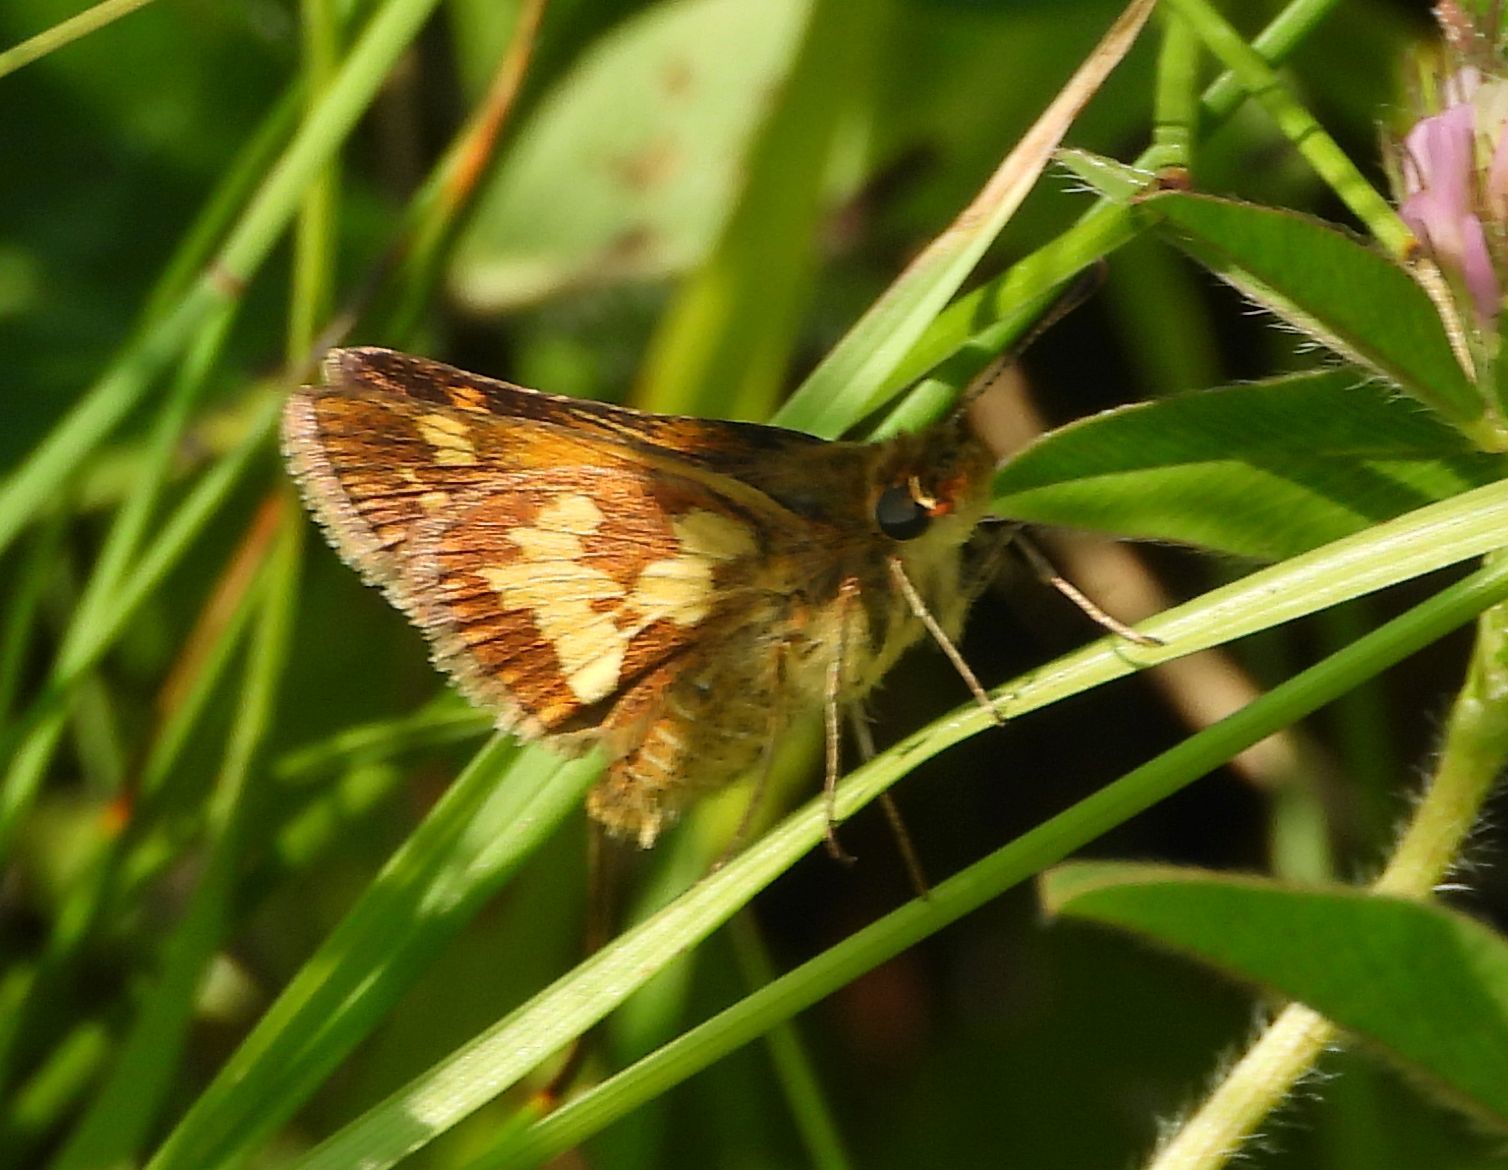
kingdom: Animalia
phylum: Arthropoda
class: Insecta
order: Lepidoptera
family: Hesperiidae
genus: Polites
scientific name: Polites coras
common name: Peck's skipper
